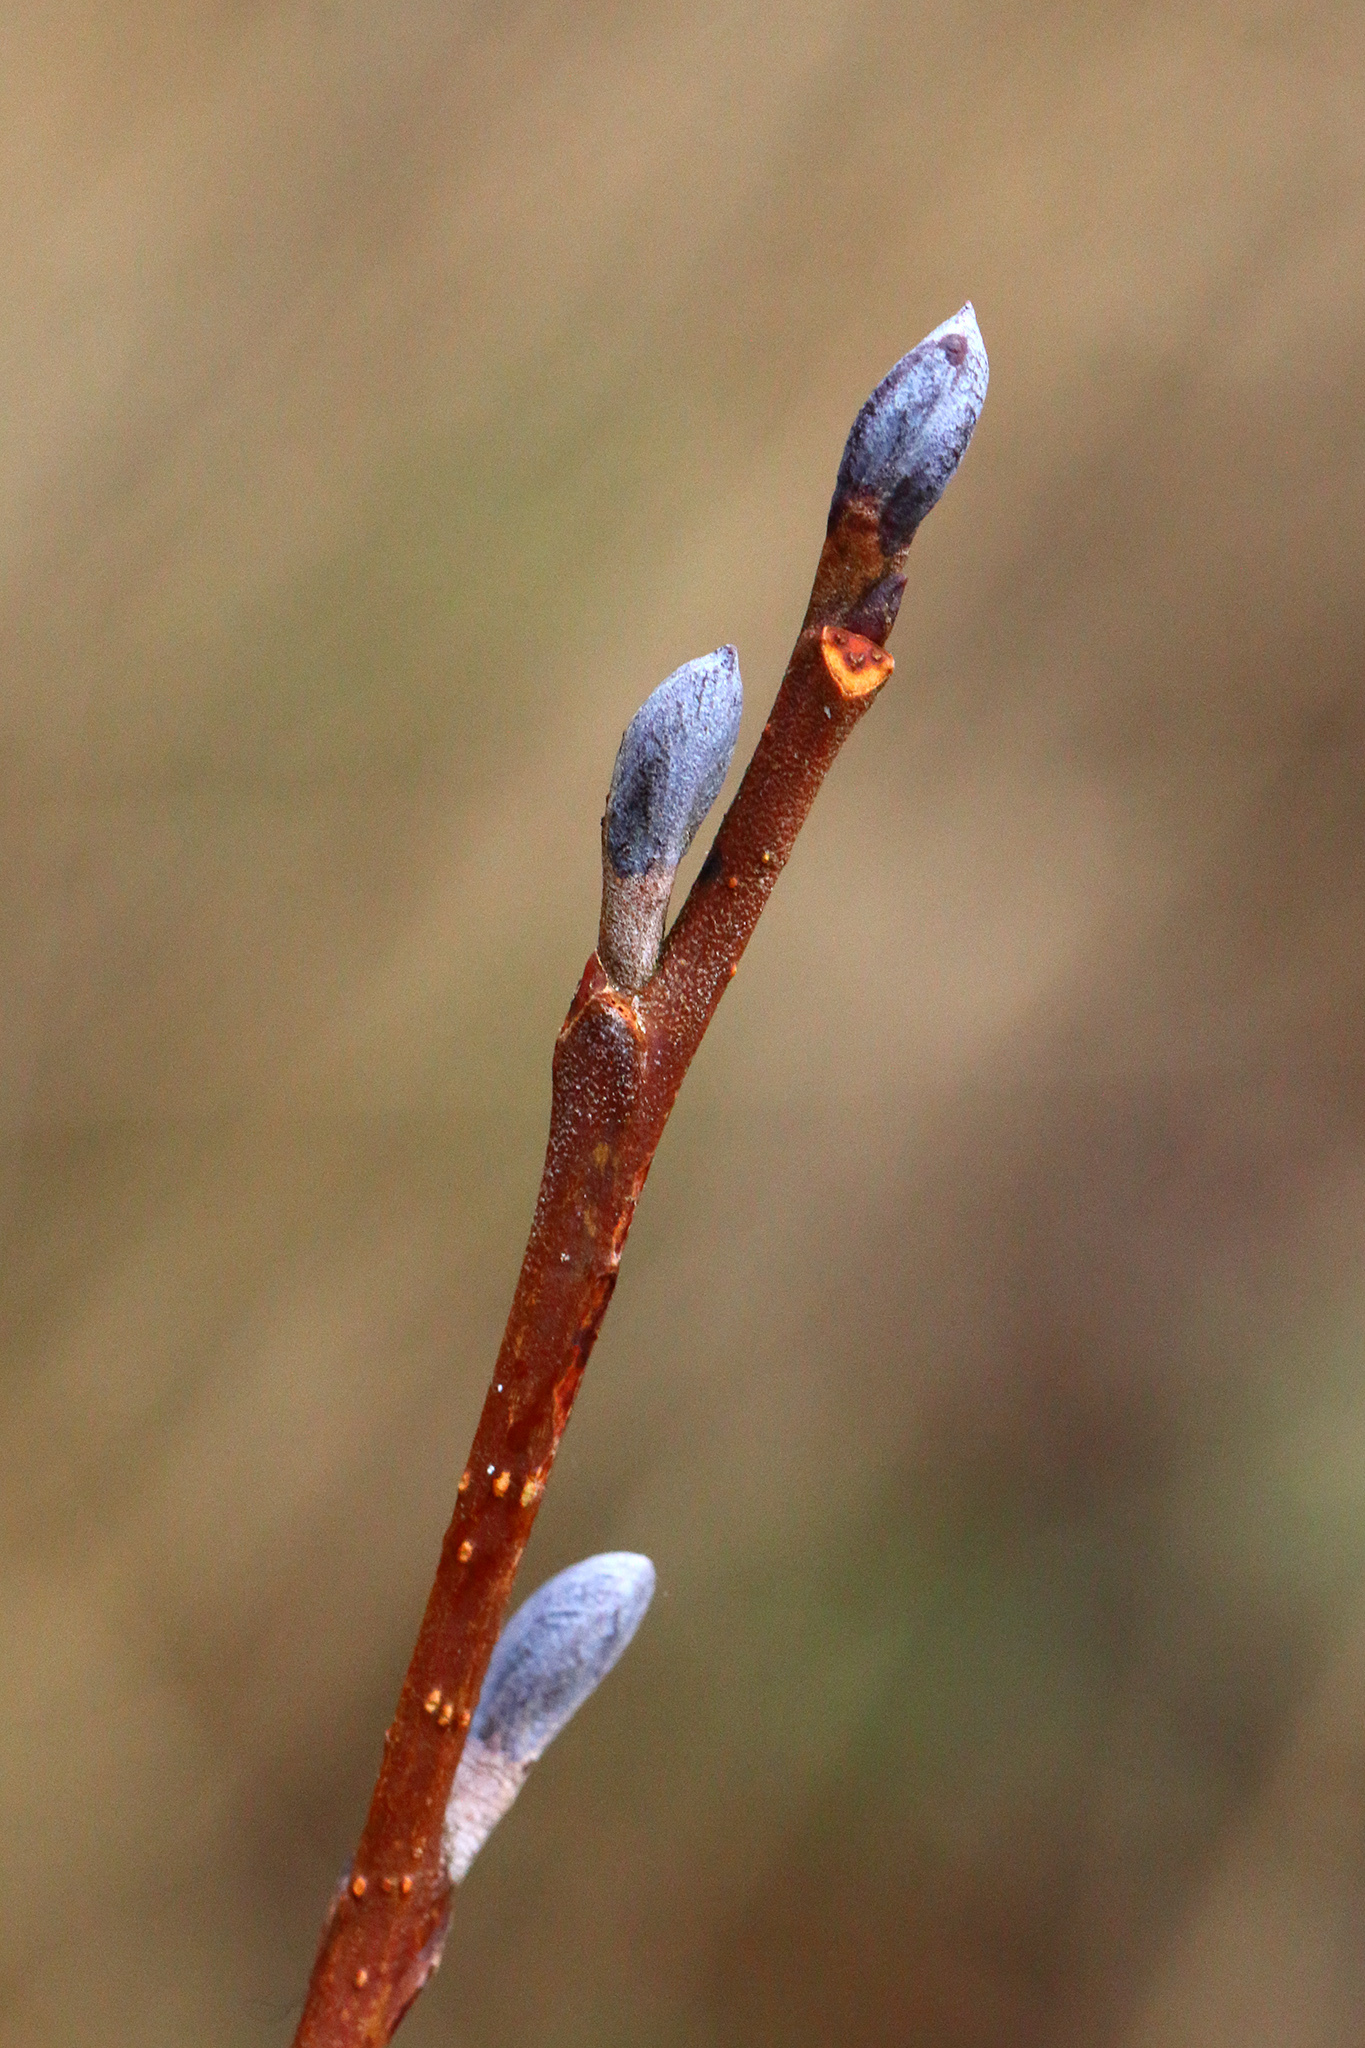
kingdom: Plantae
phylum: Tracheophyta
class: Magnoliopsida
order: Fagales
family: Betulaceae
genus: Alnus
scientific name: Alnus glutinosa
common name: Black alder
